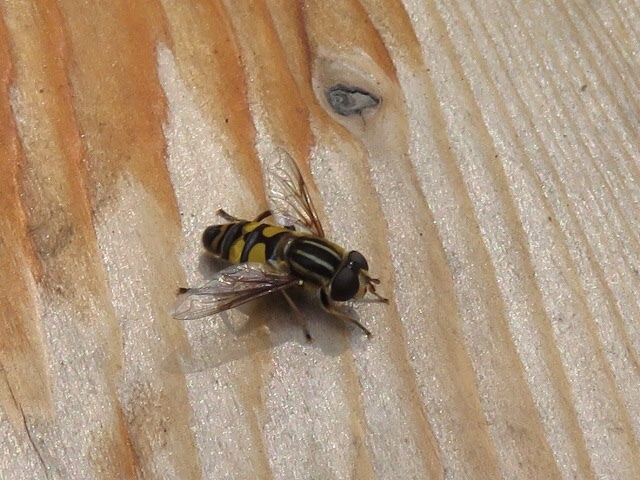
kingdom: Animalia
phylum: Arthropoda
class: Insecta
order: Diptera
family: Syrphidae
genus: Helophilus
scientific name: Helophilus fasciatus
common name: Narrow-headed marsh fly
